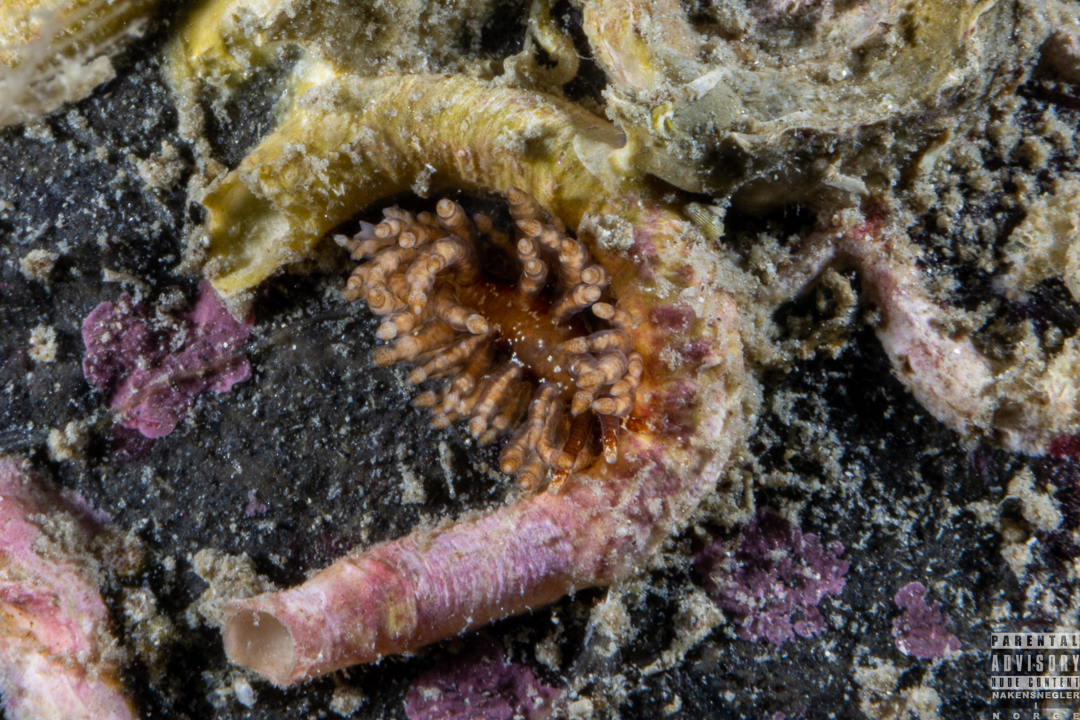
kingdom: Animalia
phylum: Mollusca
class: Gastropoda
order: Nudibranchia
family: Eubranchidae
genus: Eubranchus
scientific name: Eubranchus vittatus
